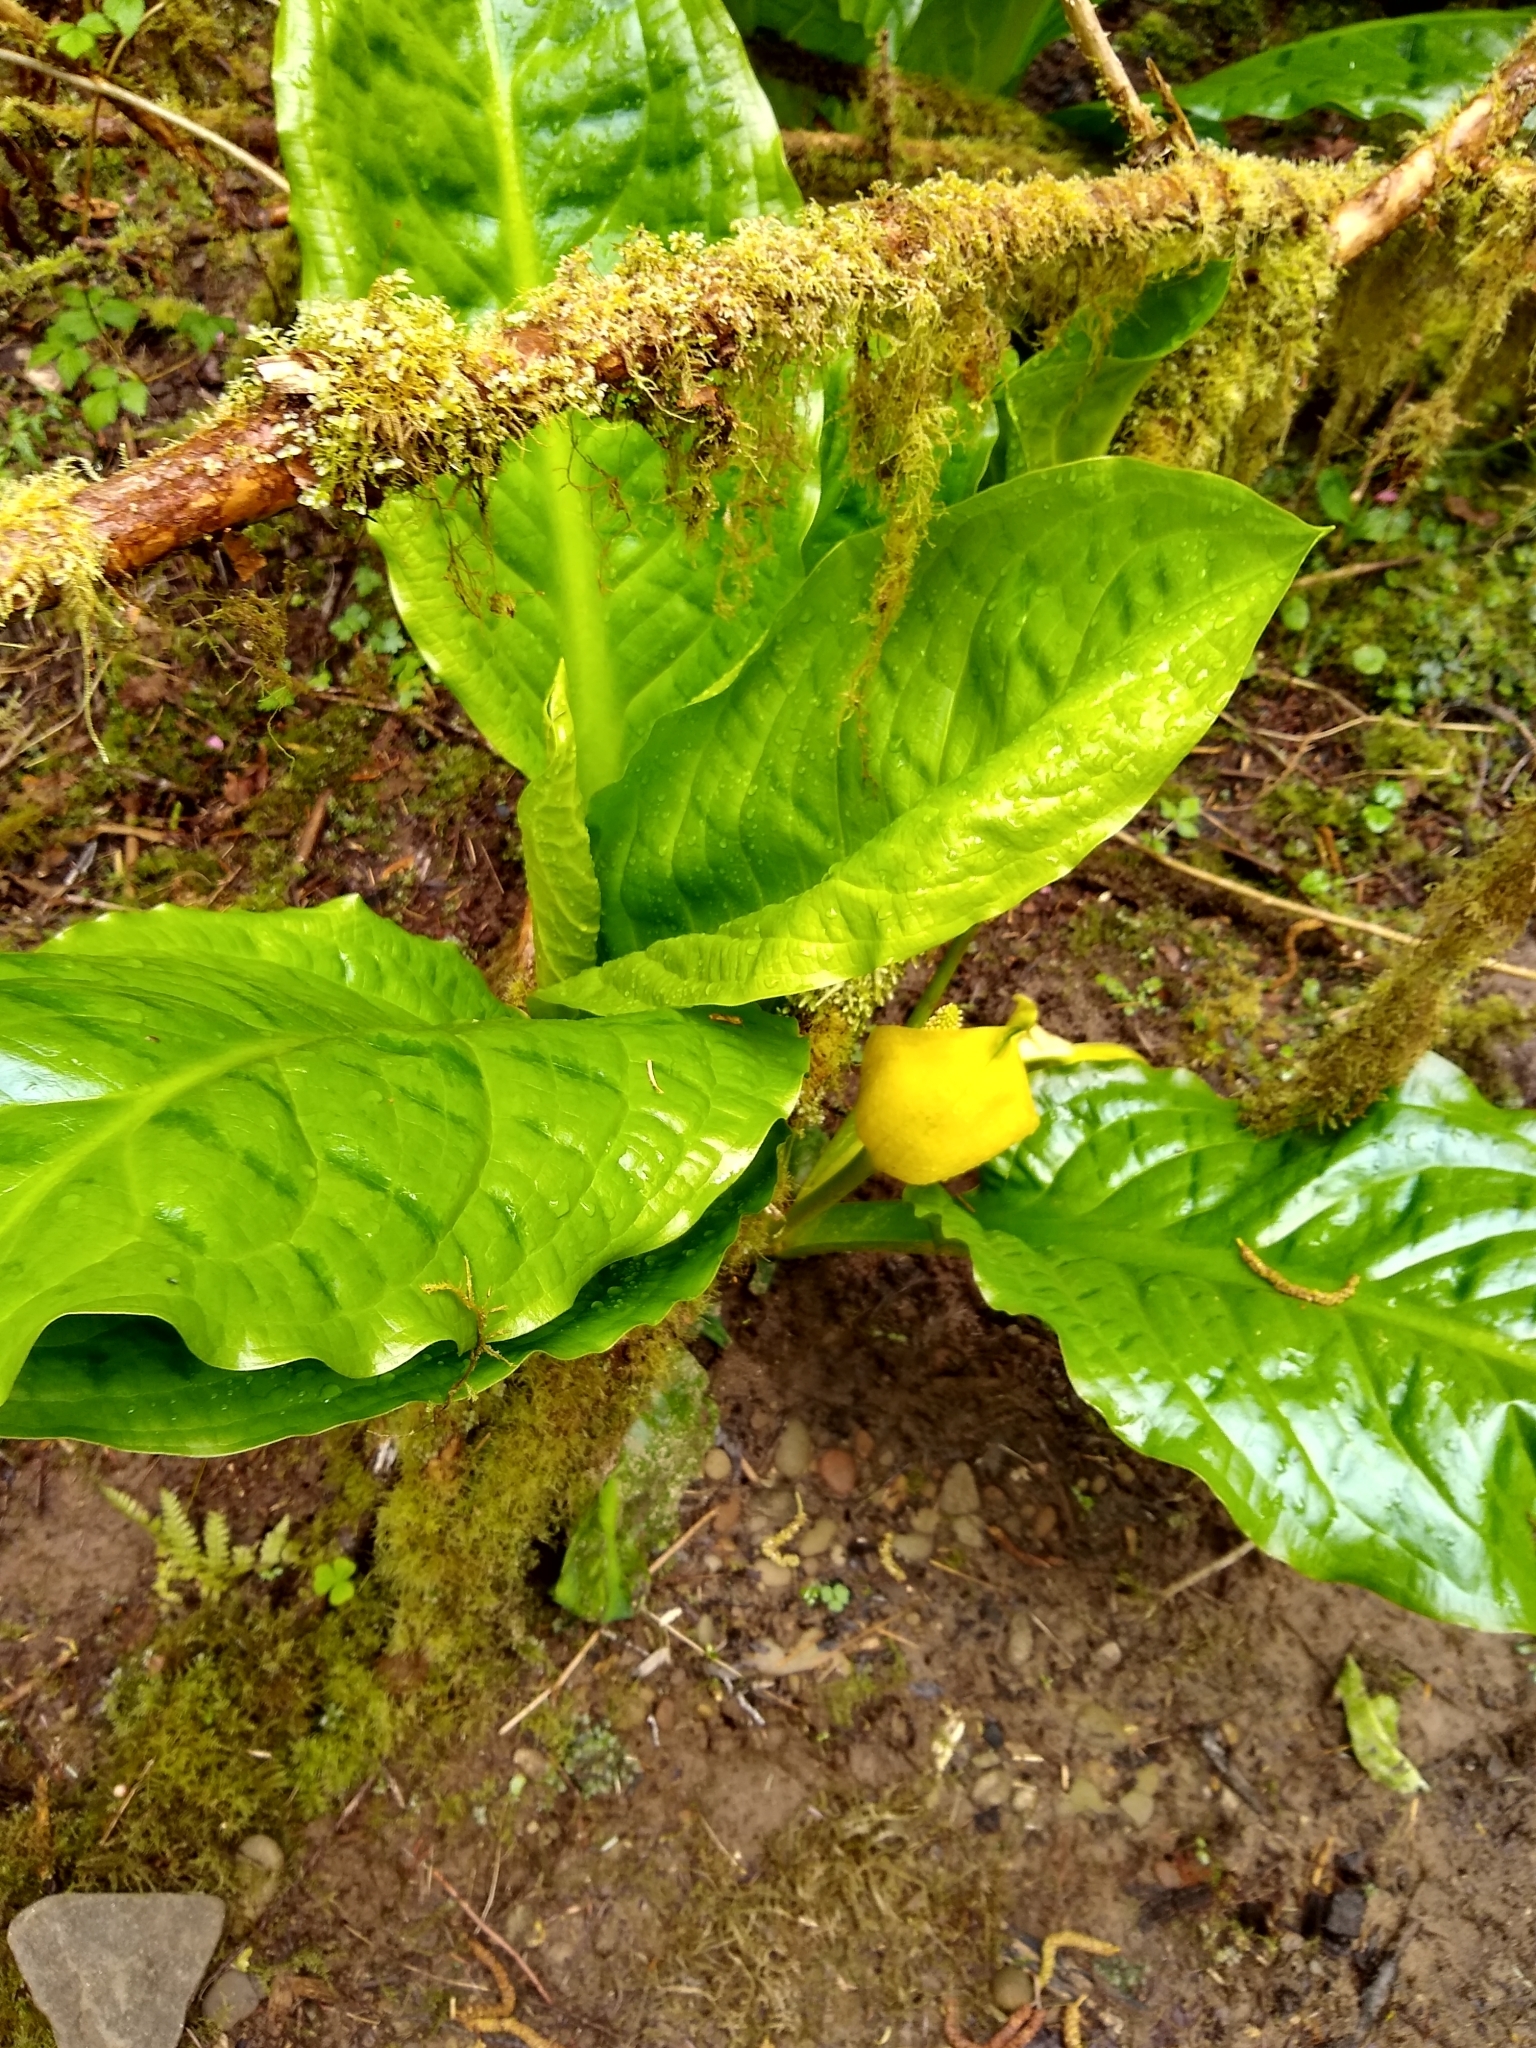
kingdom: Plantae
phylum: Tracheophyta
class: Liliopsida
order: Alismatales
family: Araceae
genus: Lysichiton
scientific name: Lysichiton americanus
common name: American skunk cabbage
